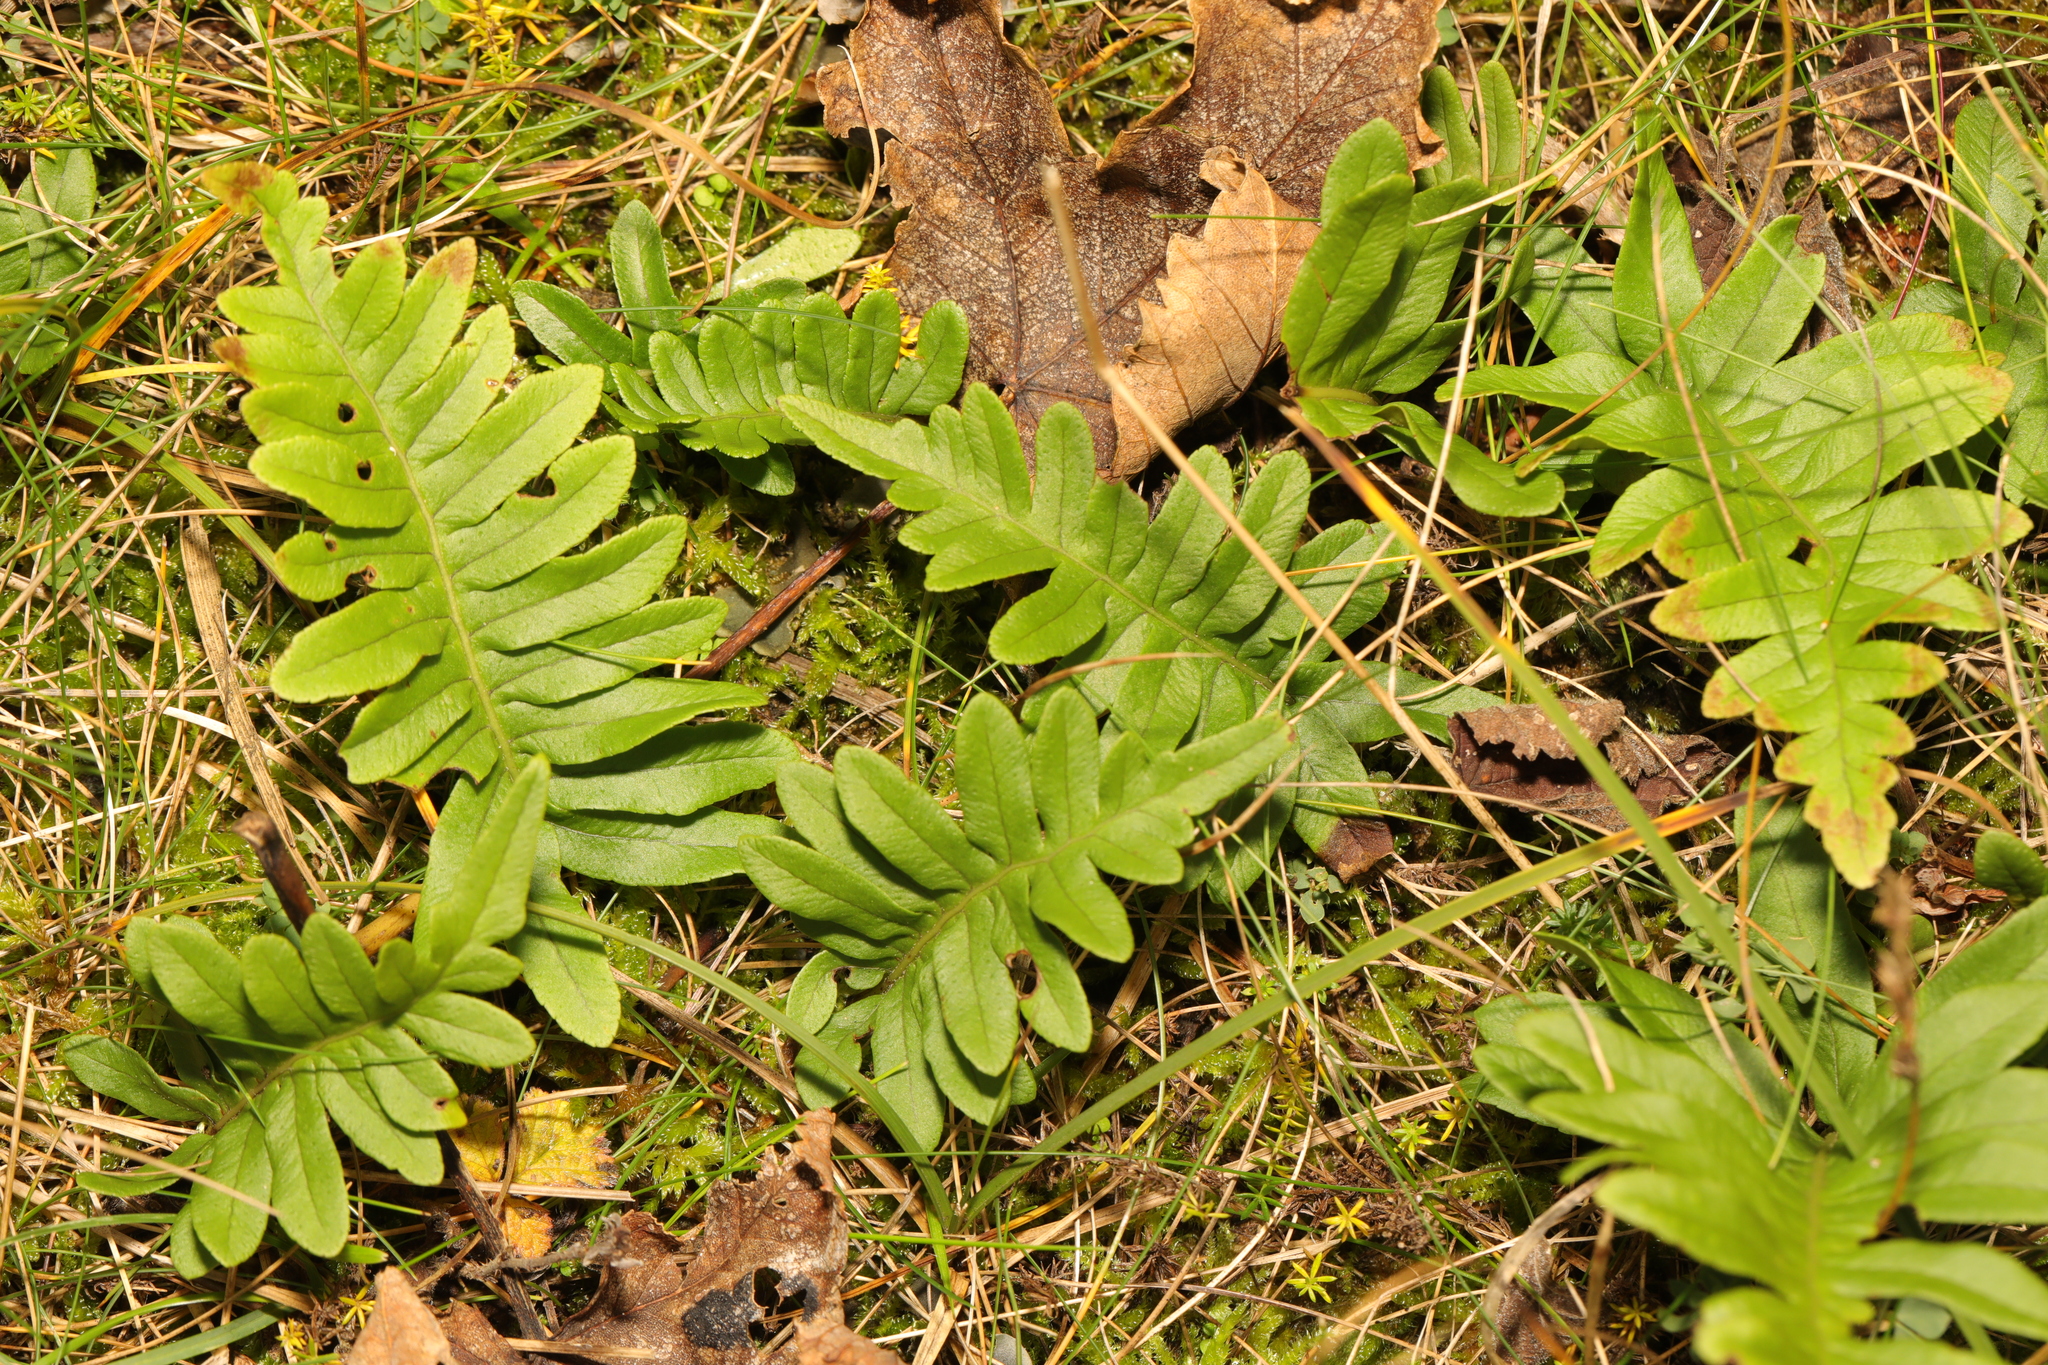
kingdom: Plantae
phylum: Tracheophyta
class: Polypodiopsida
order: Polypodiales
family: Polypodiaceae
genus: Polypodium
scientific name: Polypodium
